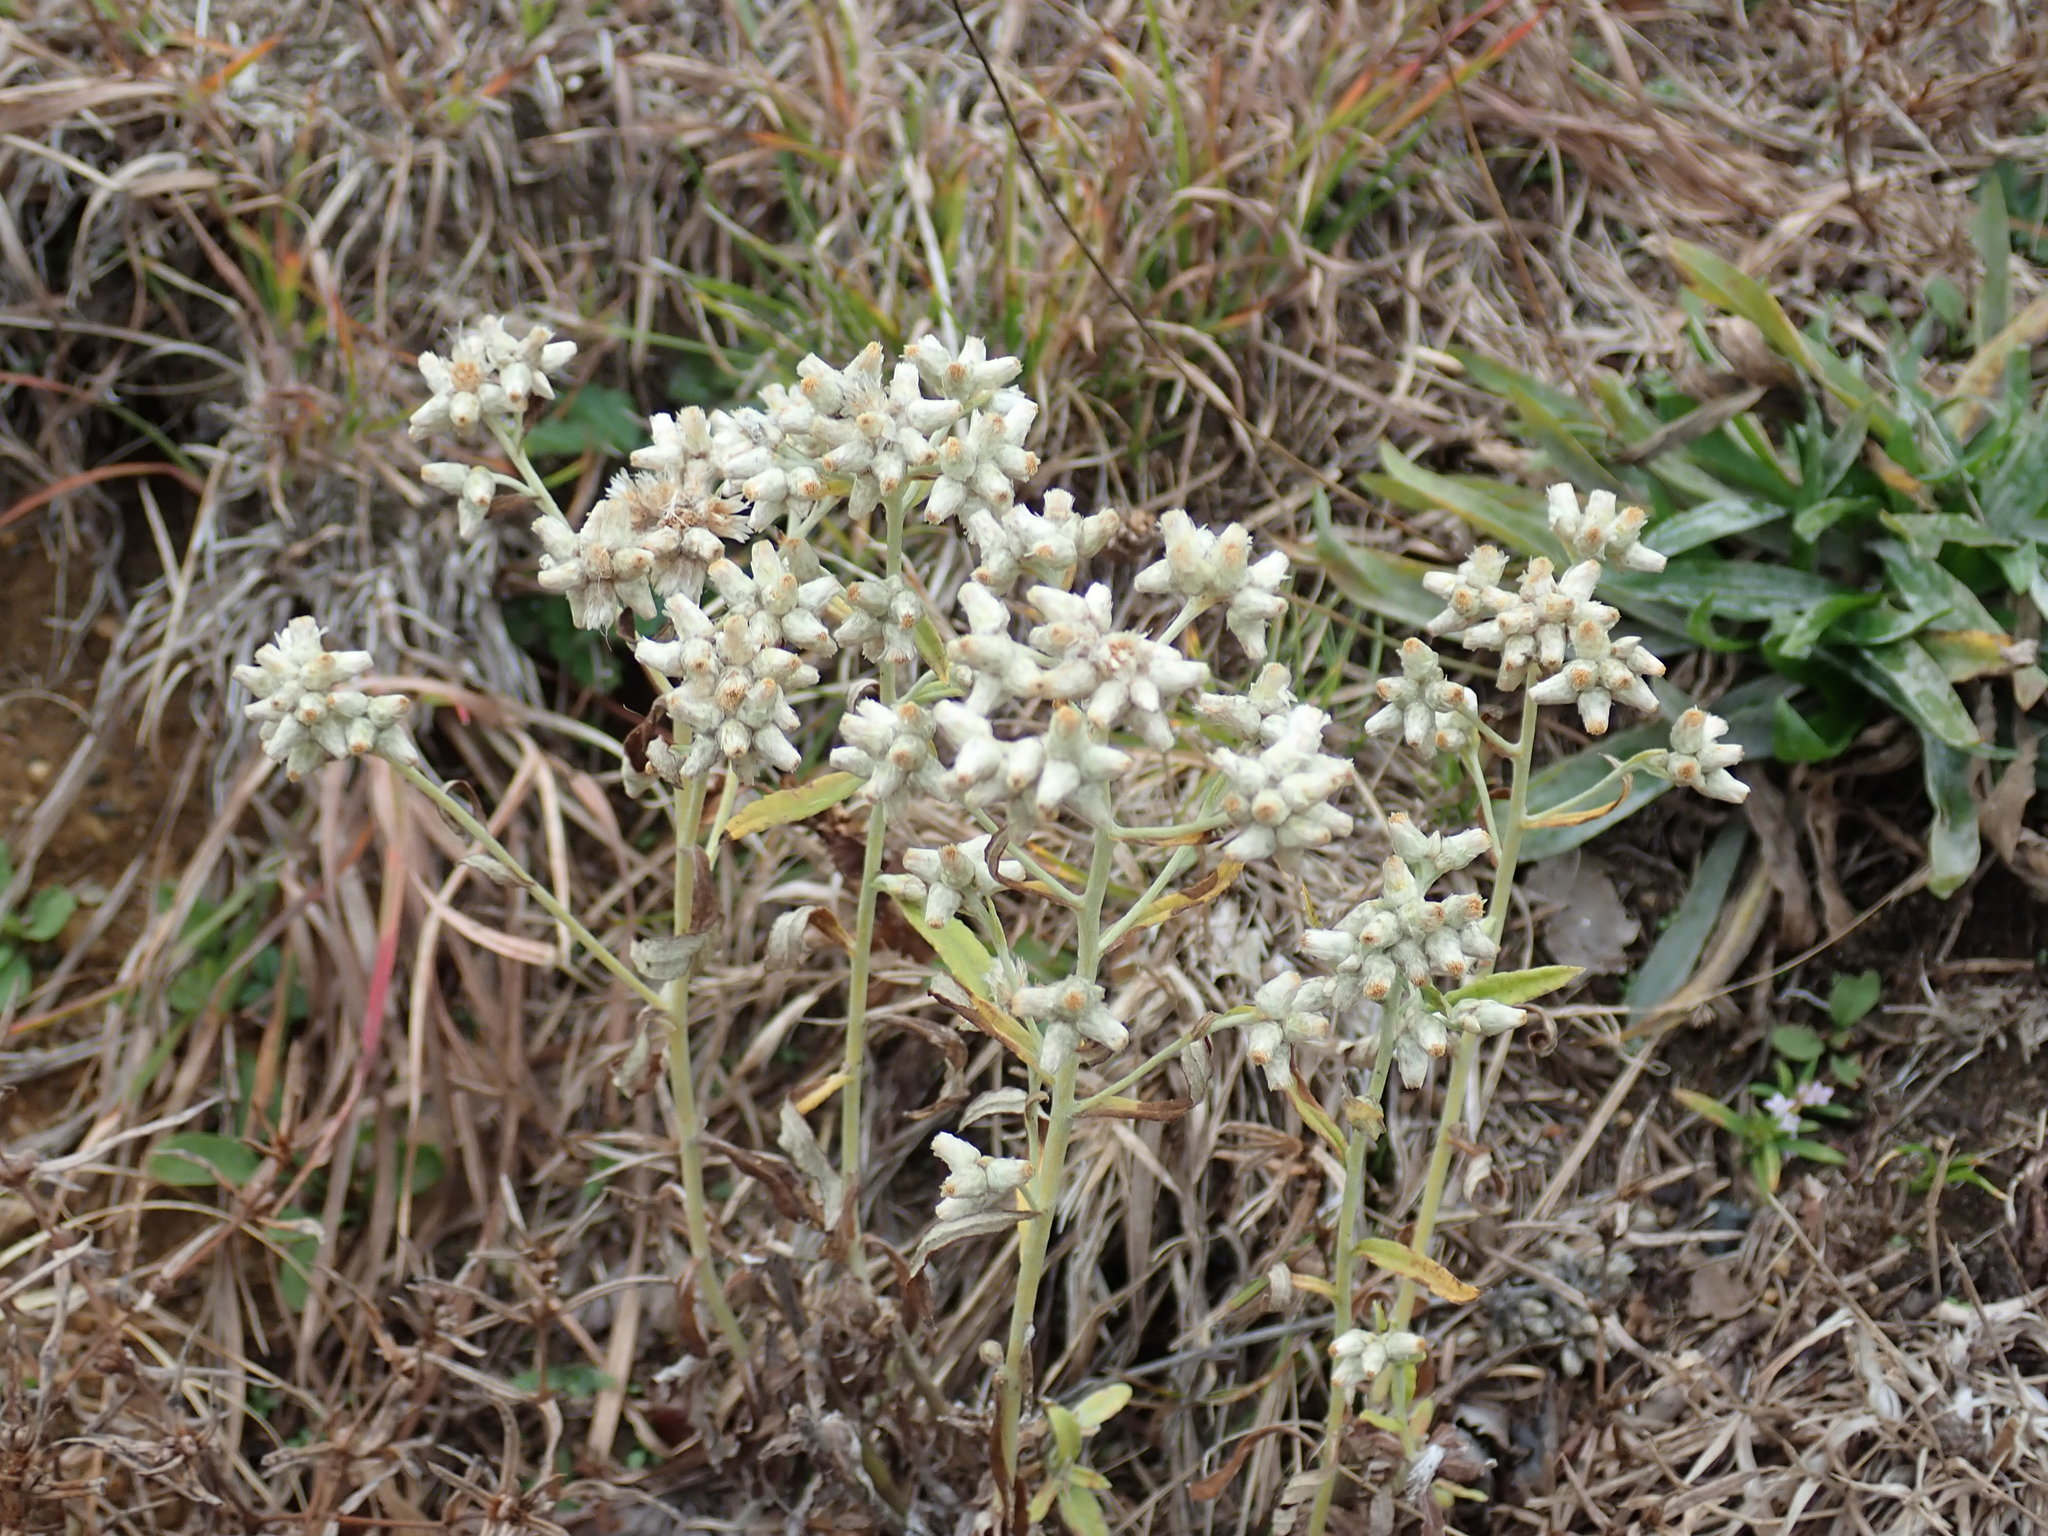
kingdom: Plantae
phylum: Tracheophyta
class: Magnoliopsida
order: Asterales
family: Asteraceae
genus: Pseudognaphalium
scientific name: Pseudognaphalium obtusifolium
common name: Eastern rabbit-tobacco
